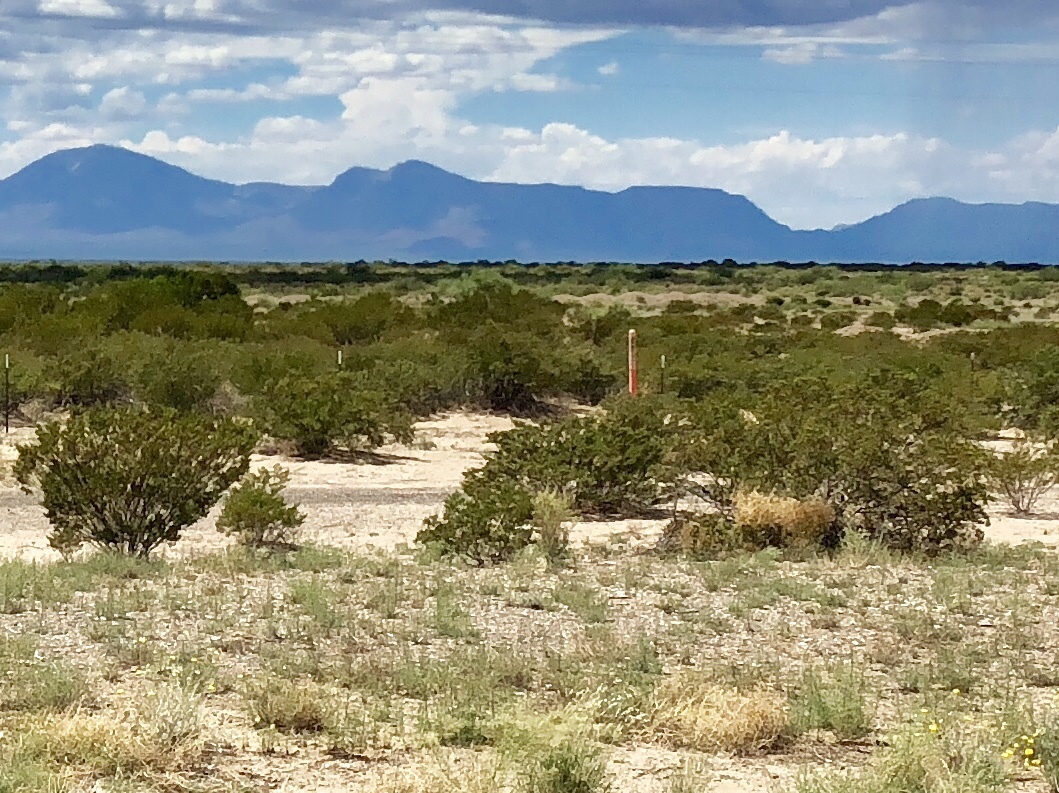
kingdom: Plantae
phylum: Tracheophyta
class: Magnoliopsida
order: Zygophyllales
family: Zygophyllaceae
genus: Larrea
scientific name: Larrea tridentata
